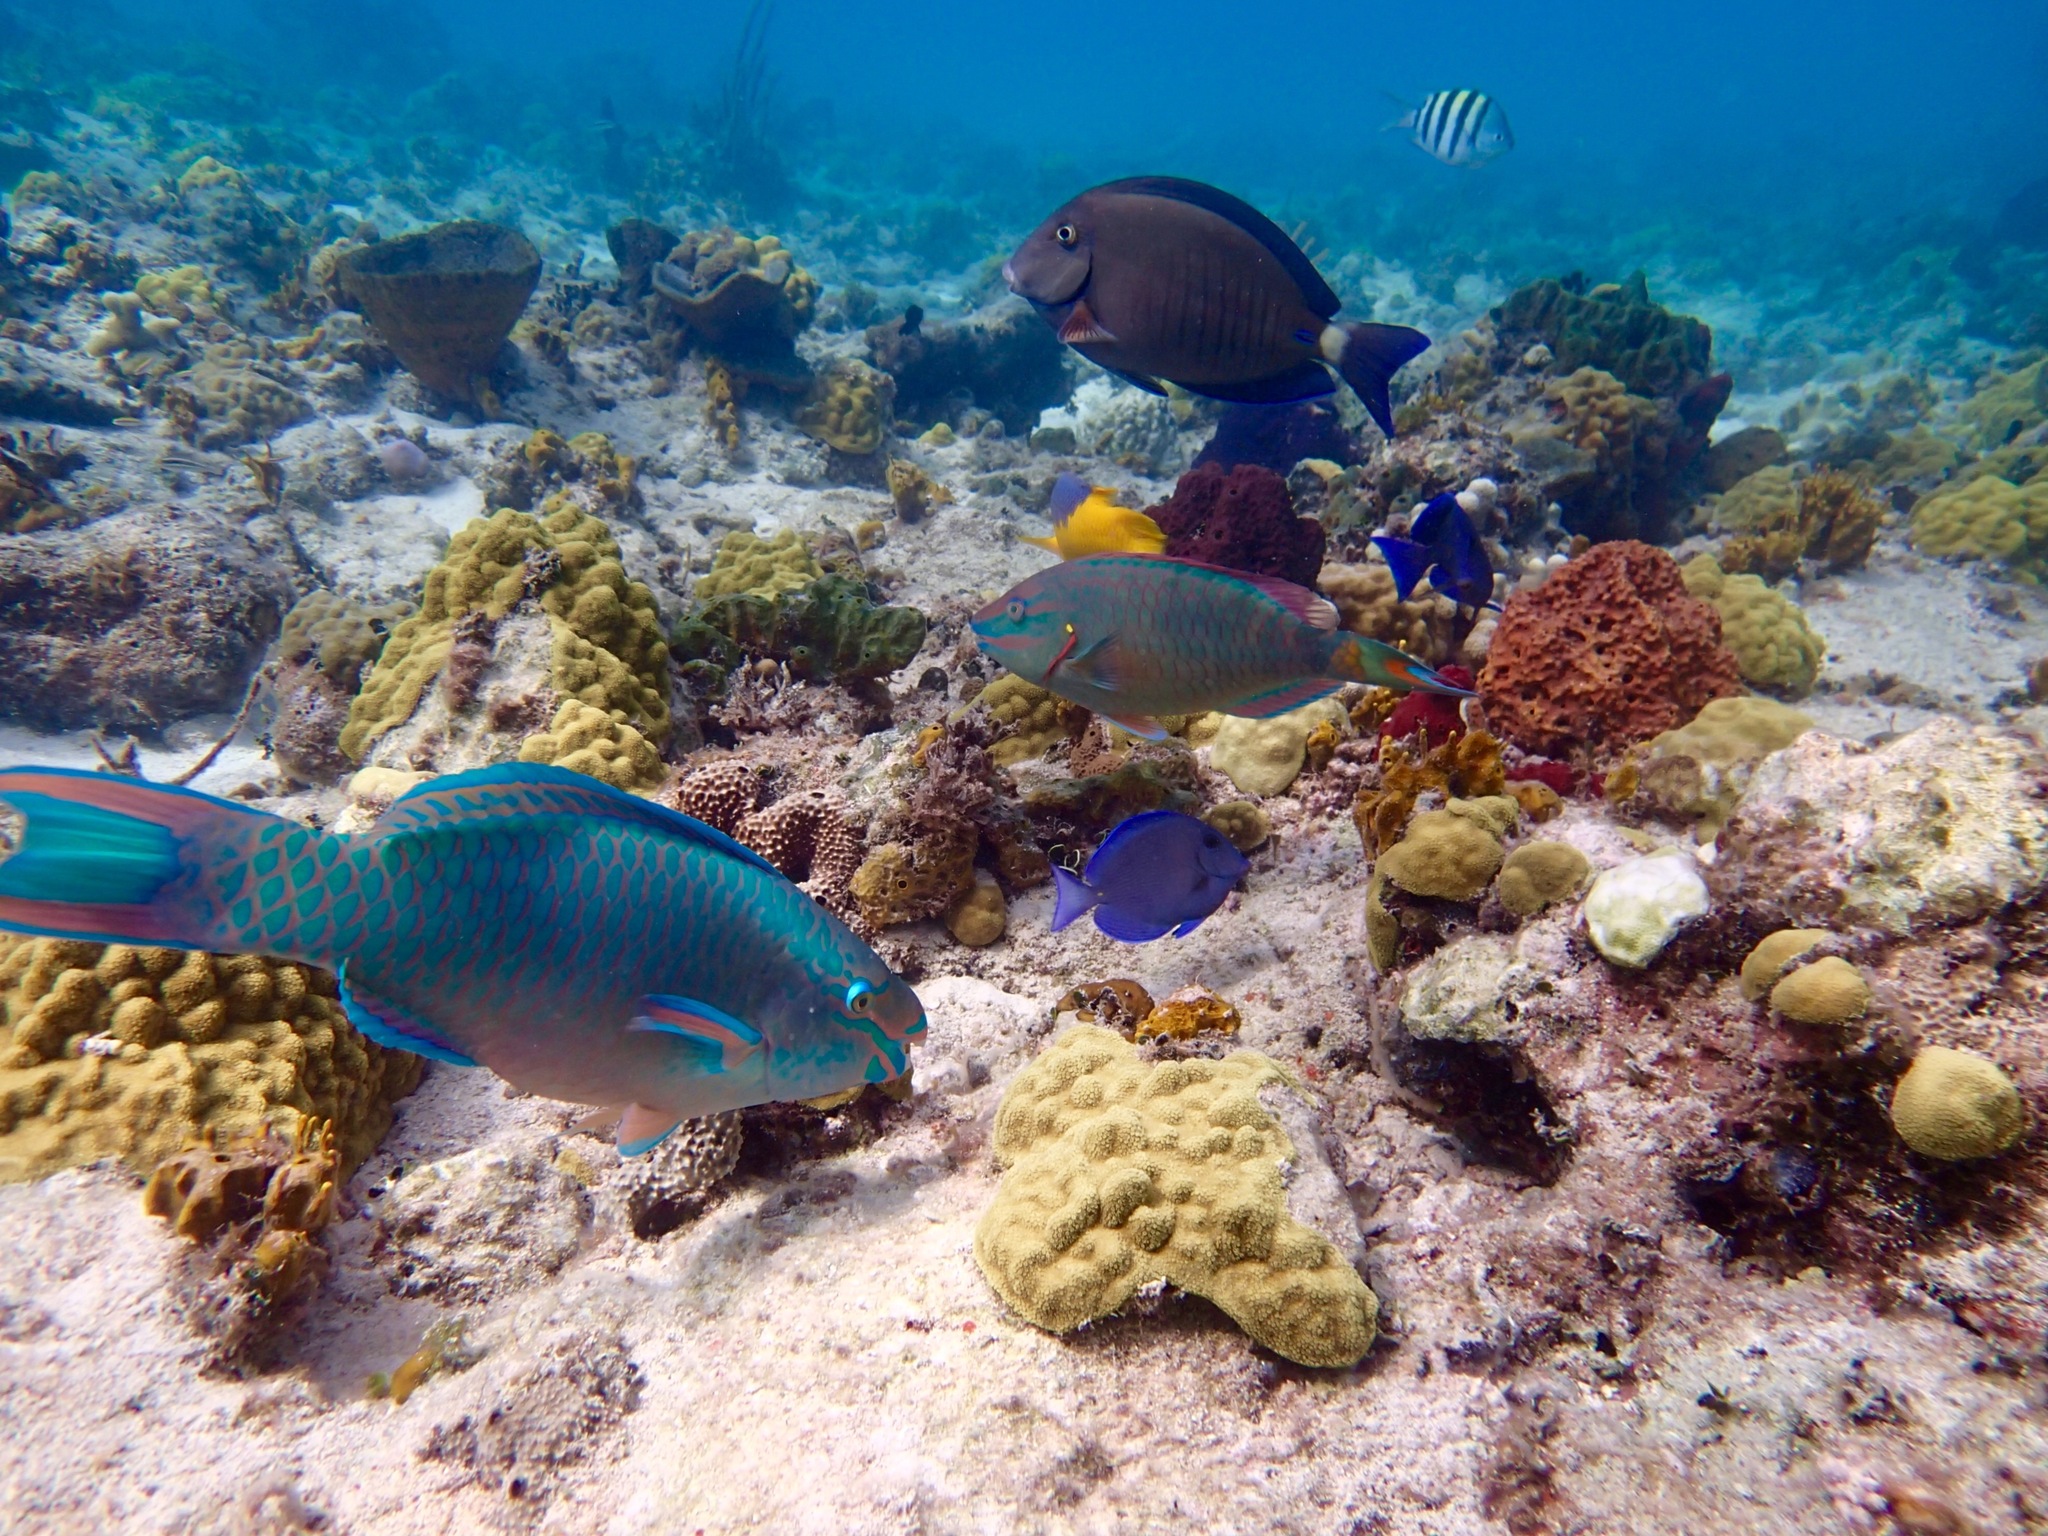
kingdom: Animalia
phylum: Chordata
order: Perciformes
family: Labridae
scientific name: Labridae
